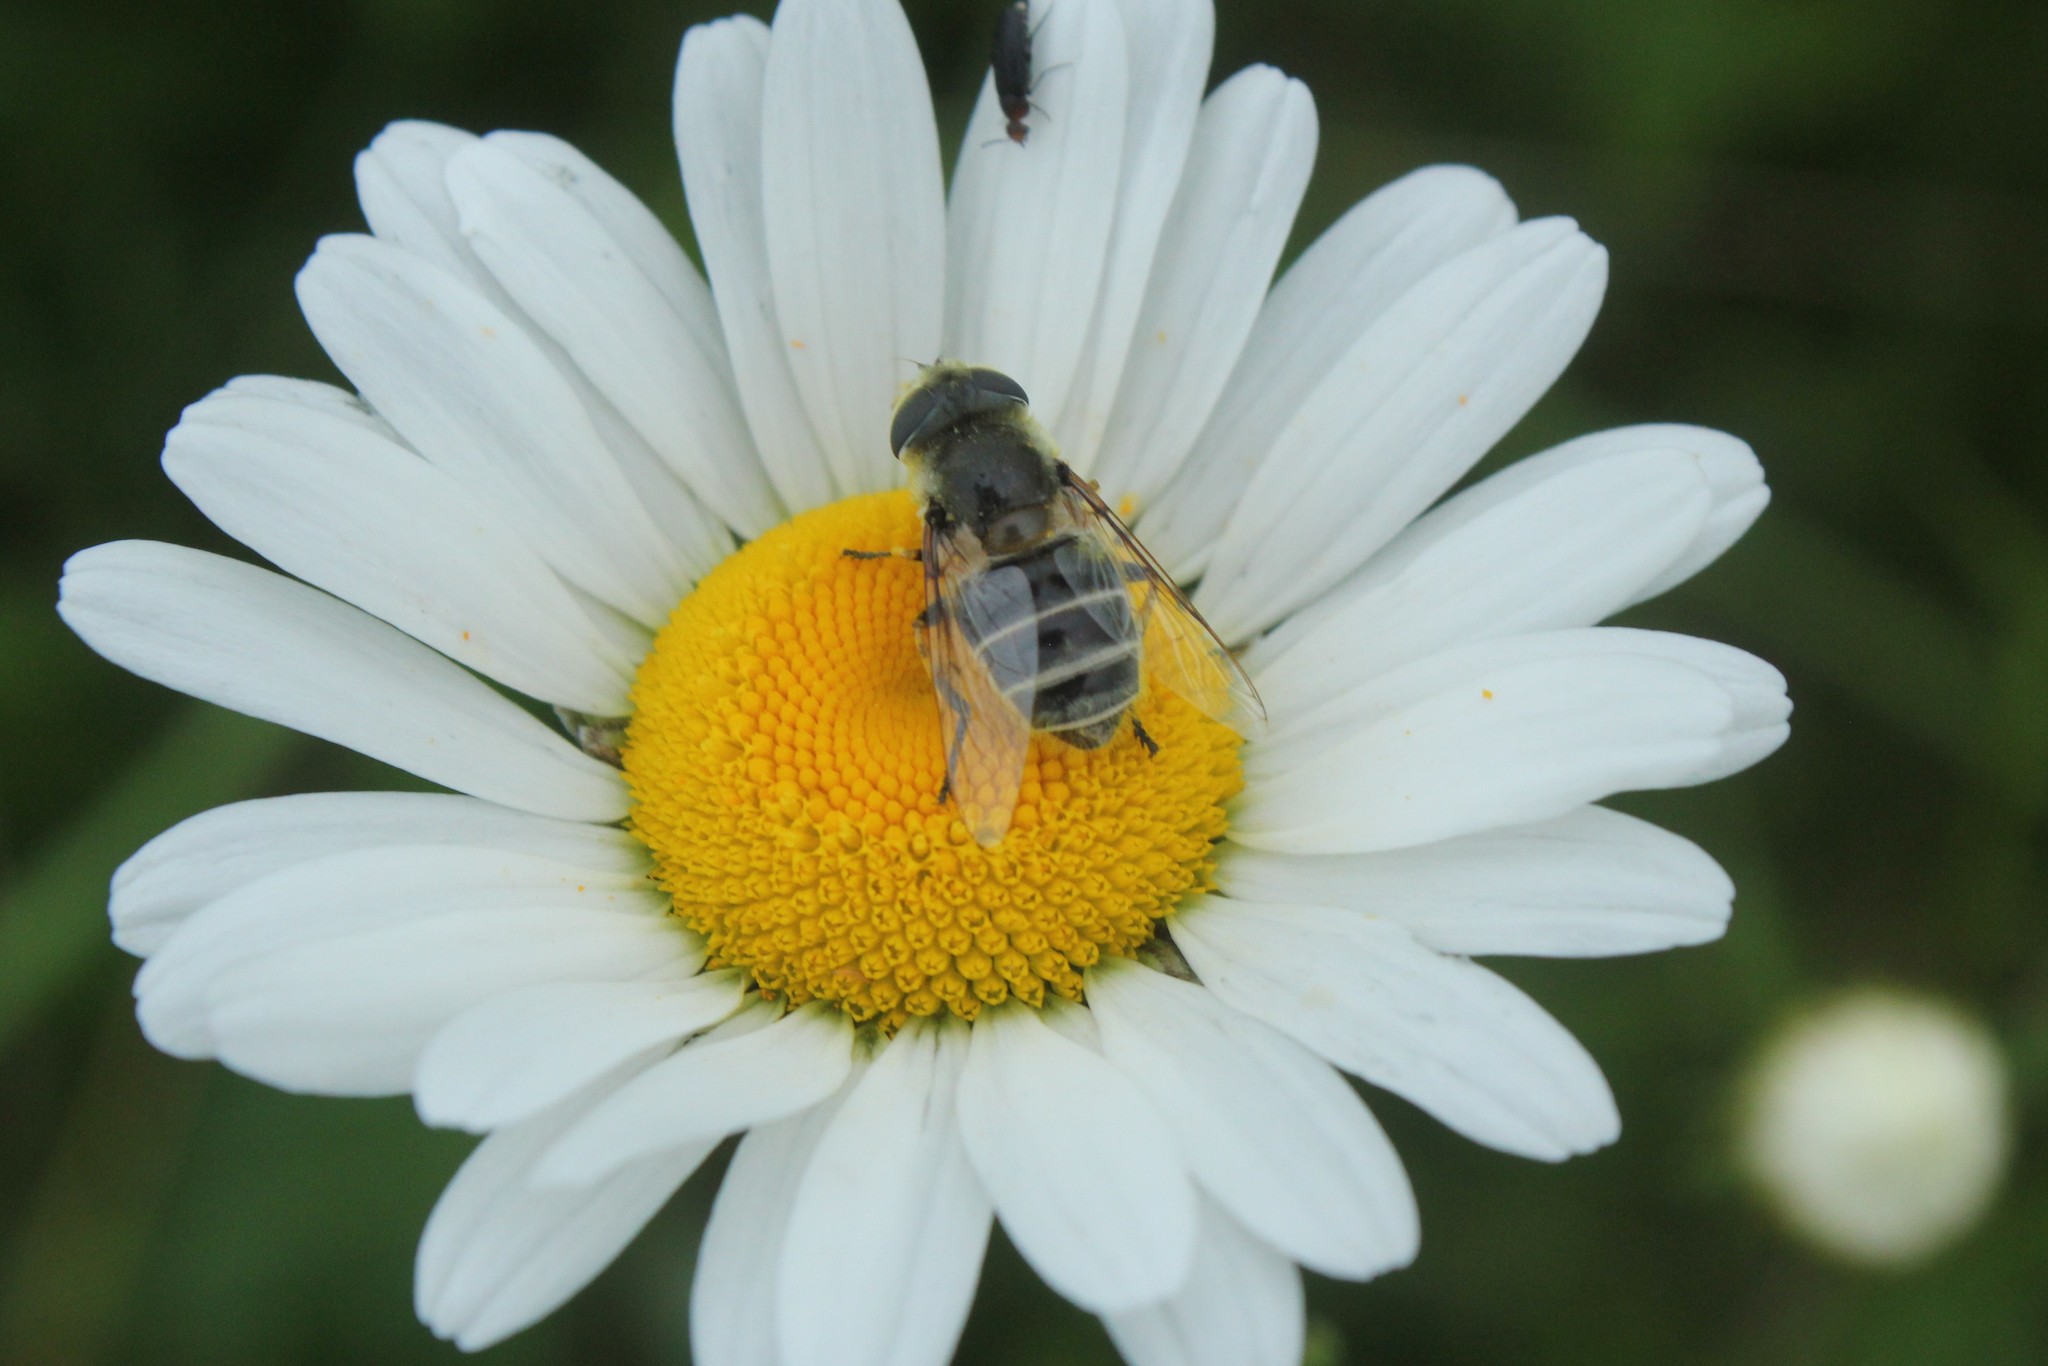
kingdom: Animalia
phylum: Arthropoda
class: Insecta
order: Diptera
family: Syrphidae
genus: Eristalis
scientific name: Eristalis stipator
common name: Yellow-shouldered drone fly
